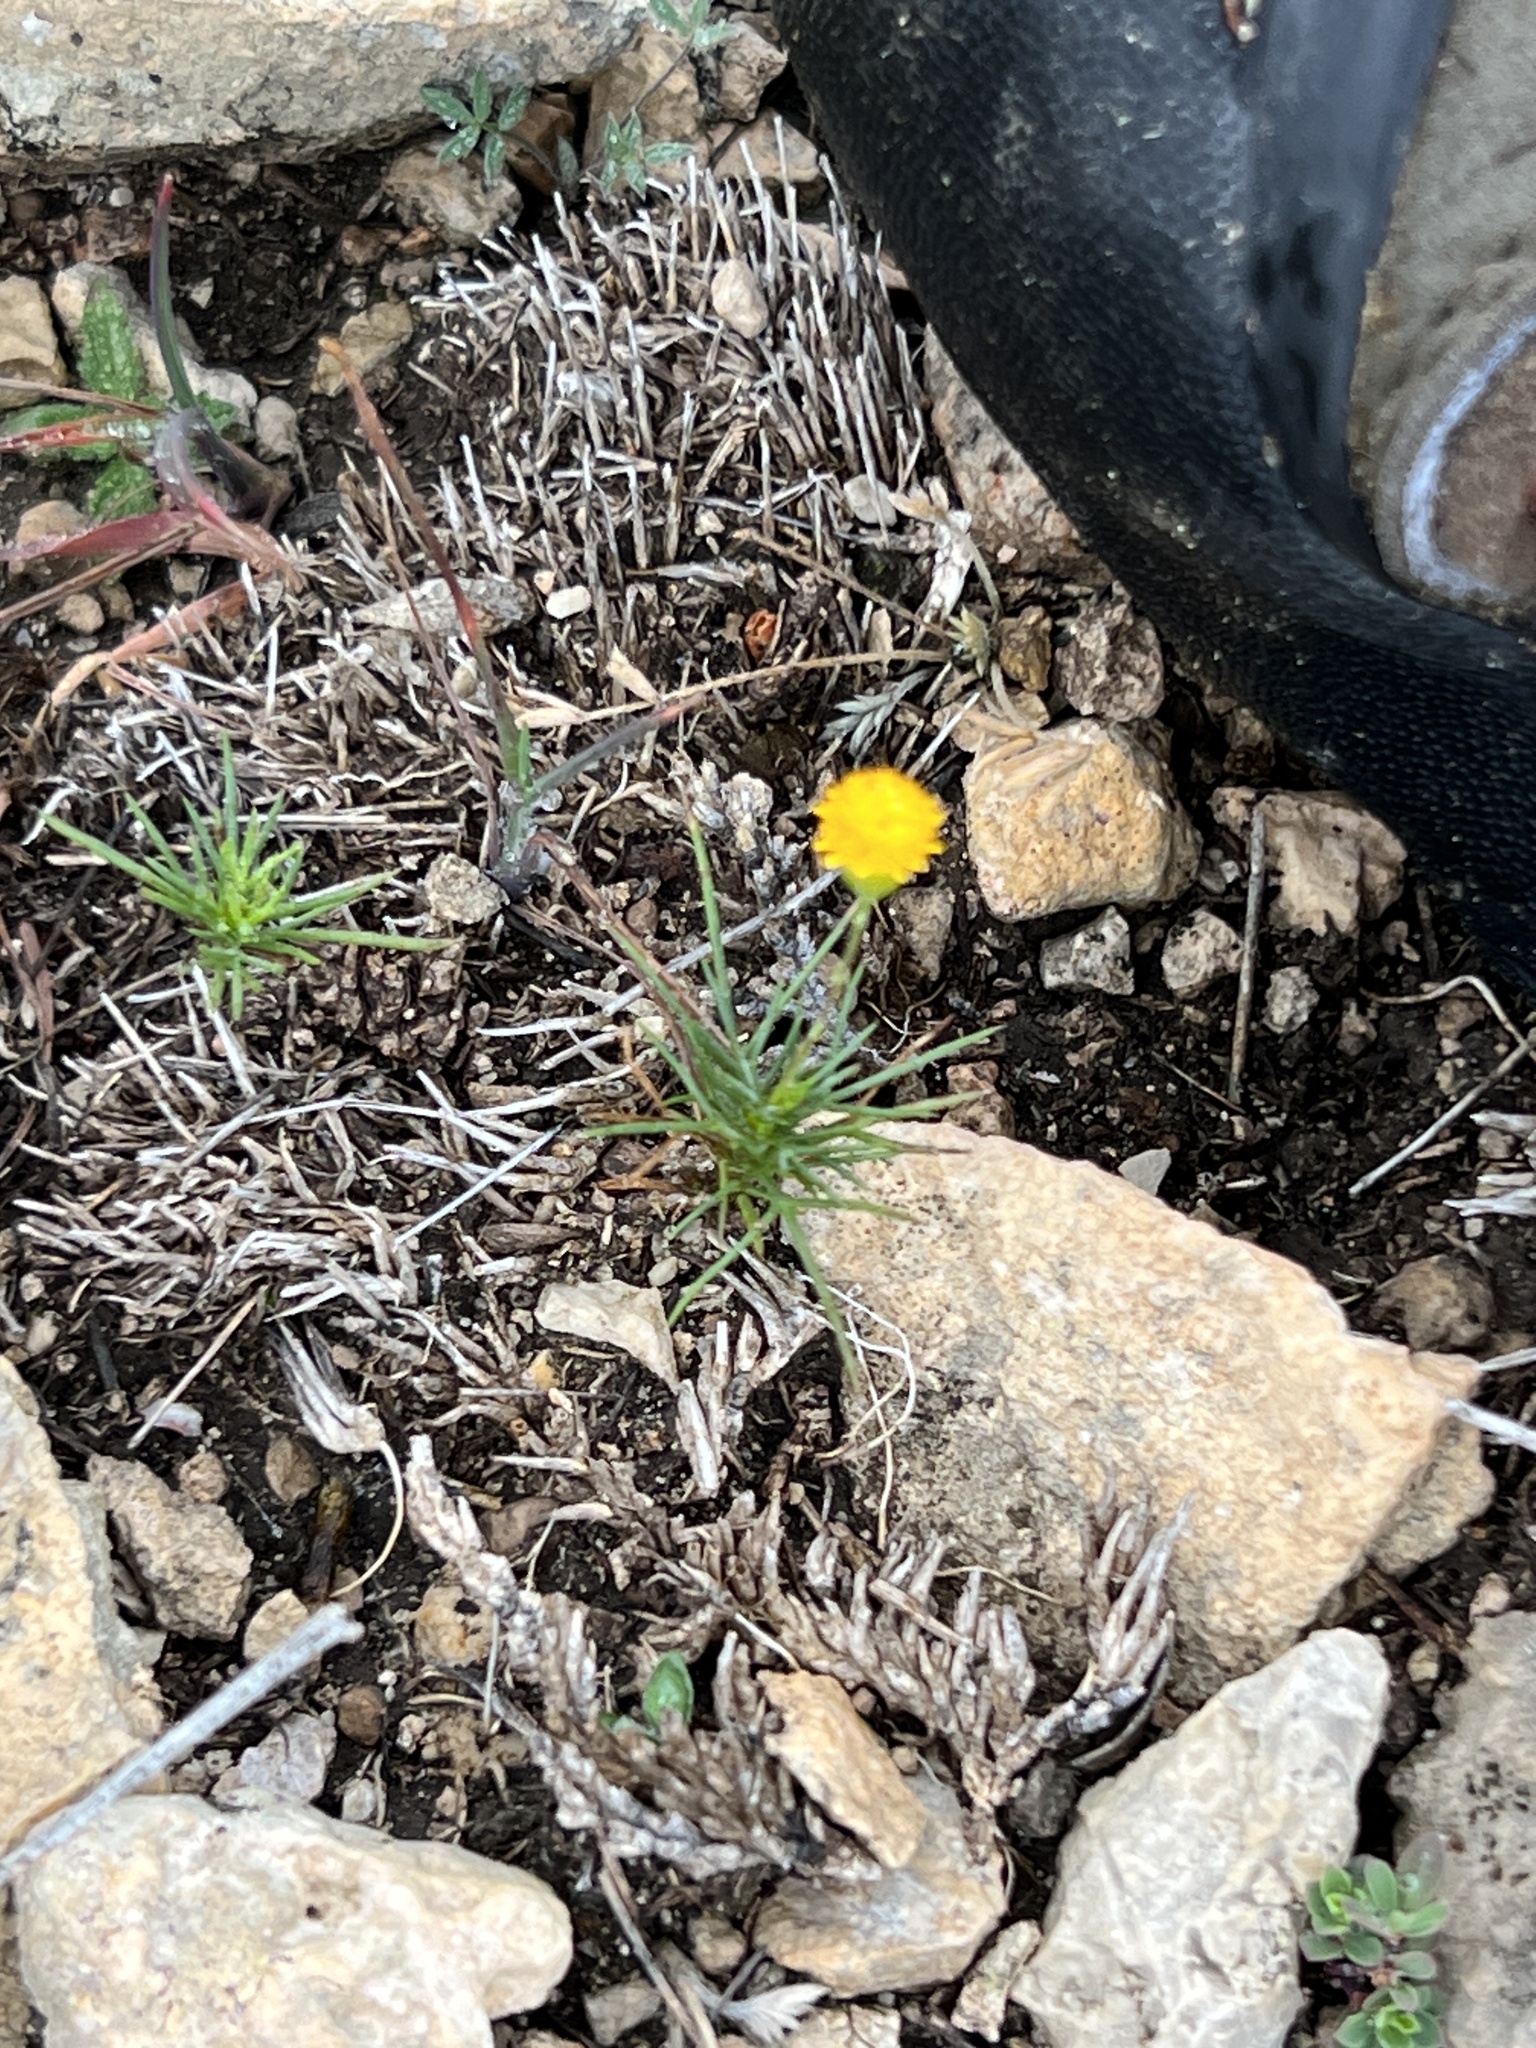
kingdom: Plantae
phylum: Tracheophyta
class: Magnoliopsida
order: Asterales
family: Asteraceae
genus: Thymophylla
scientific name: Thymophylla pentachaeta
